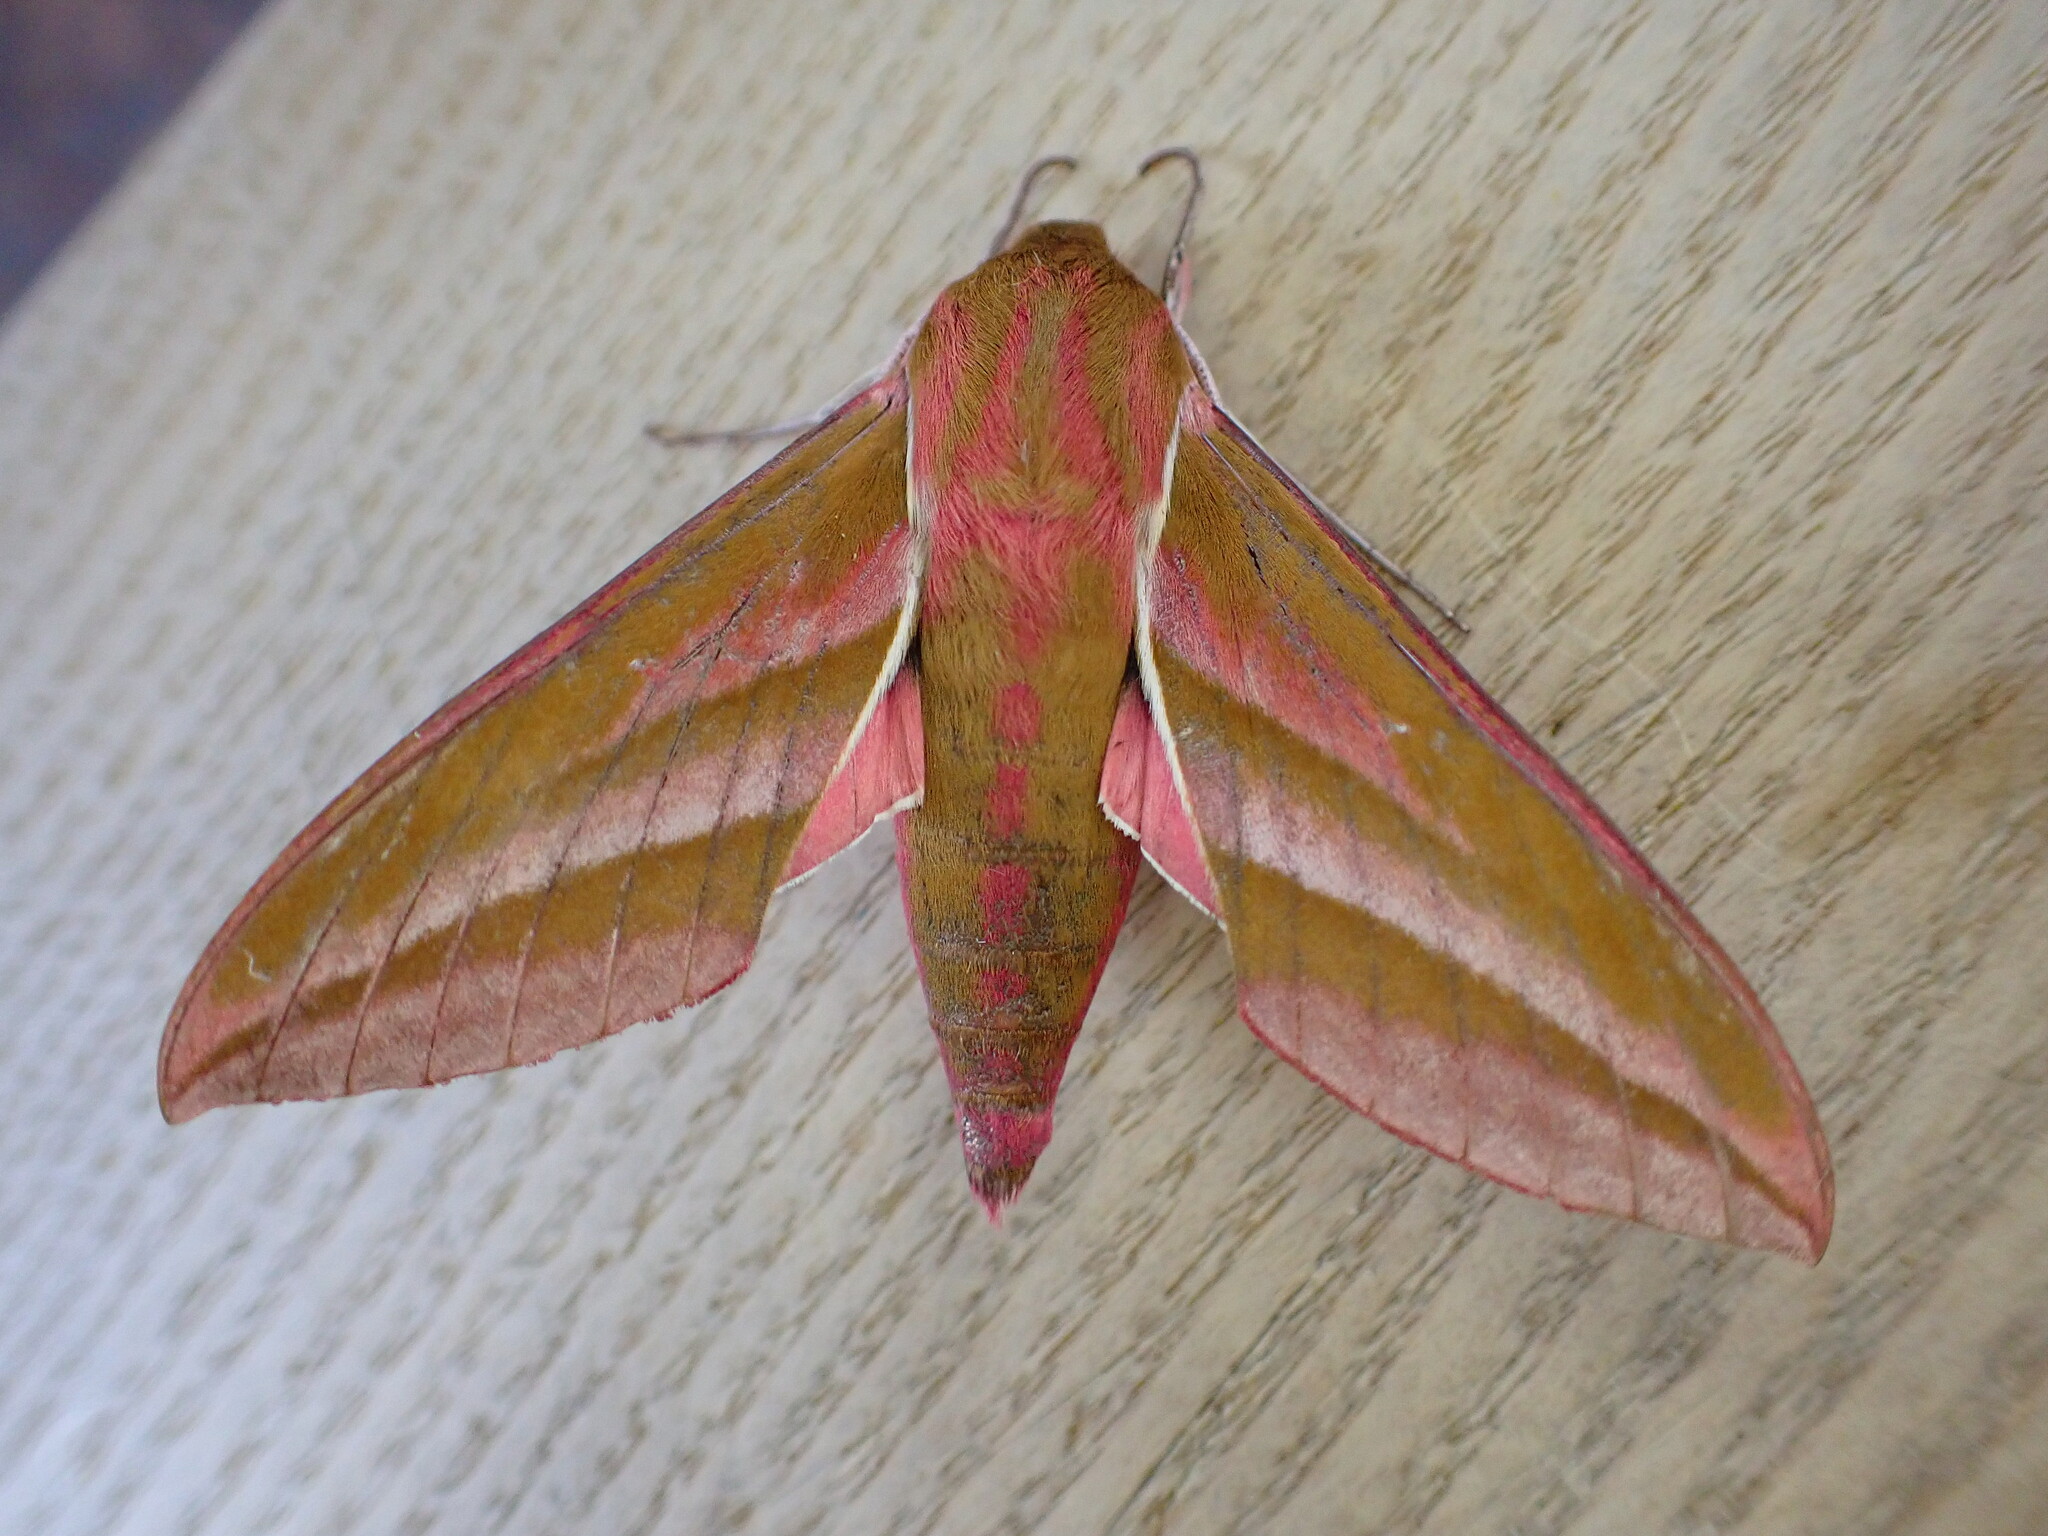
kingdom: Animalia
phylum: Arthropoda
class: Insecta
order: Lepidoptera
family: Sphingidae
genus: Deilephila
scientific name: Deilephila elpenor
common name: Elephant hawk-moth
